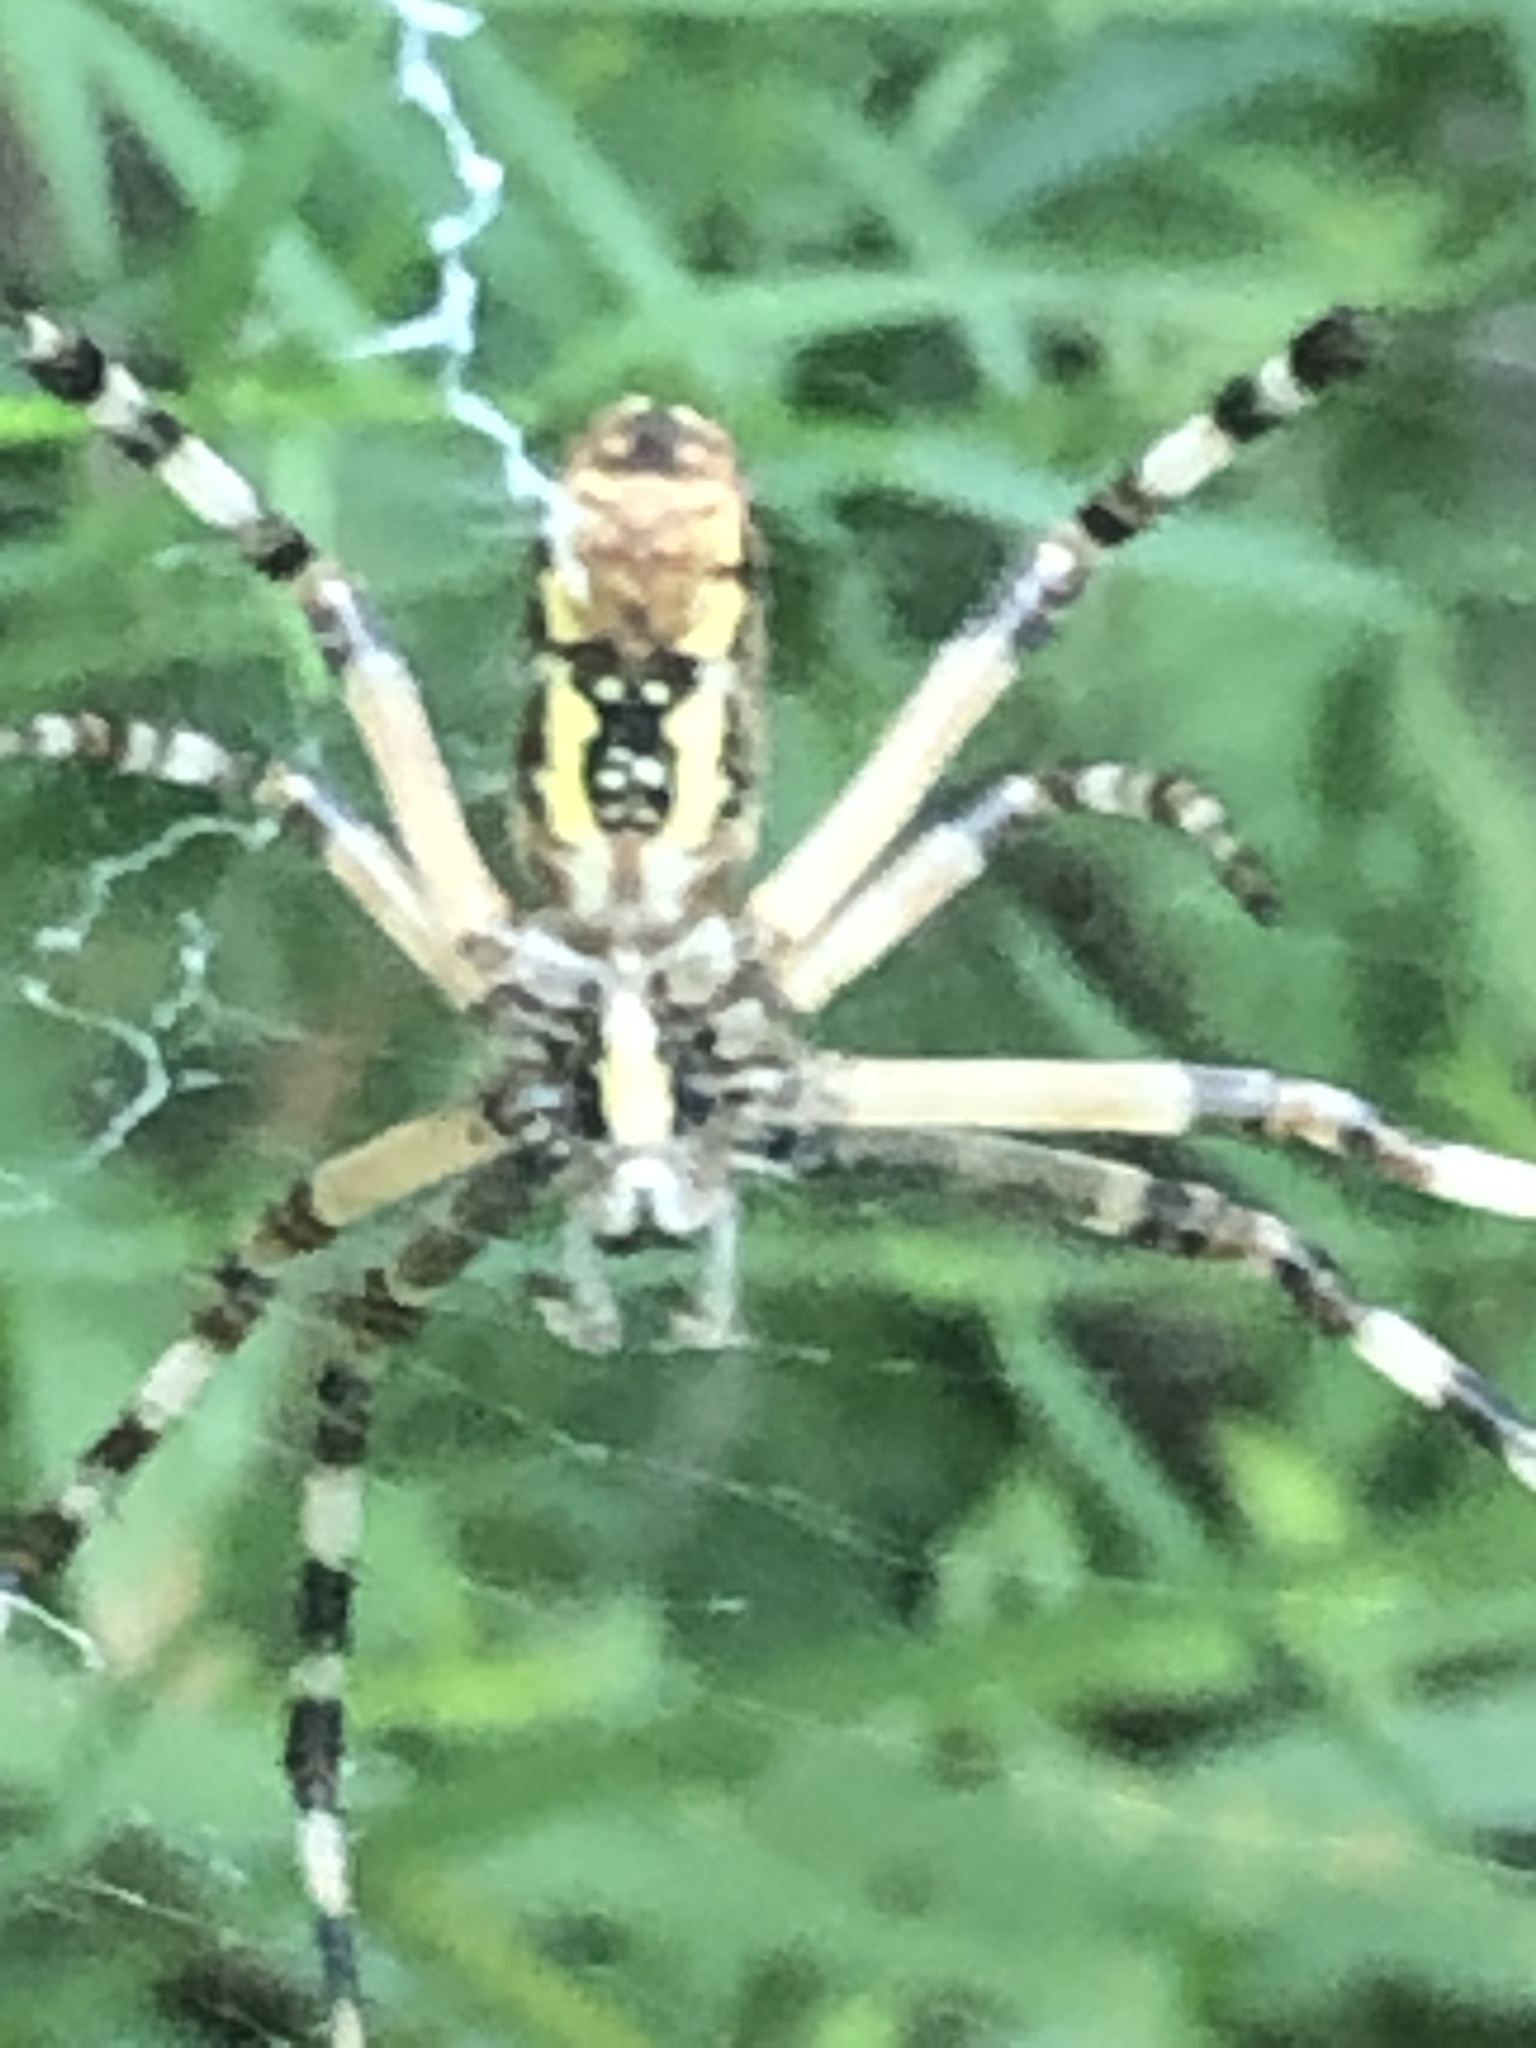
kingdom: Animalia
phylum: Arthropoda
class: Arachnida
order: Araneae
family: Araneidae
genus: Argiope
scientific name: Argiope aurantia
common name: Orb weavers
